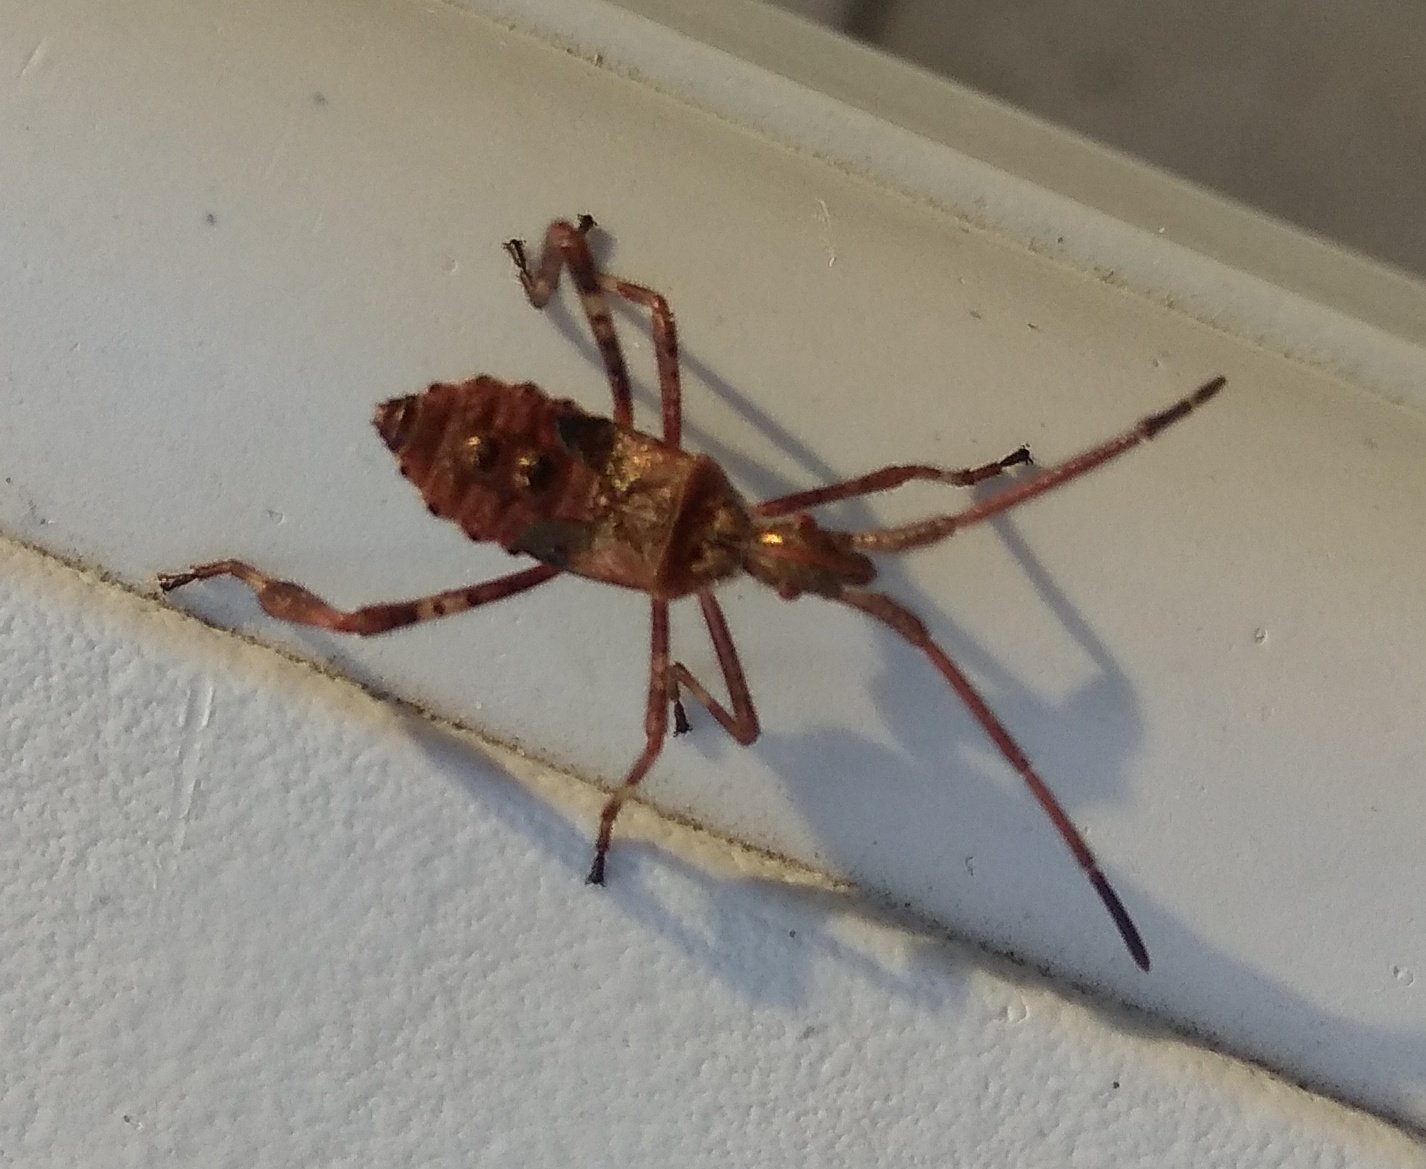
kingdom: Animalia
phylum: Arthropoda
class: Insecta
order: Hemiptera
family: Coreidae
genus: Leptoglossus
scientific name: Leptoglossus occidentalis
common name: Western conifer-seed bug
